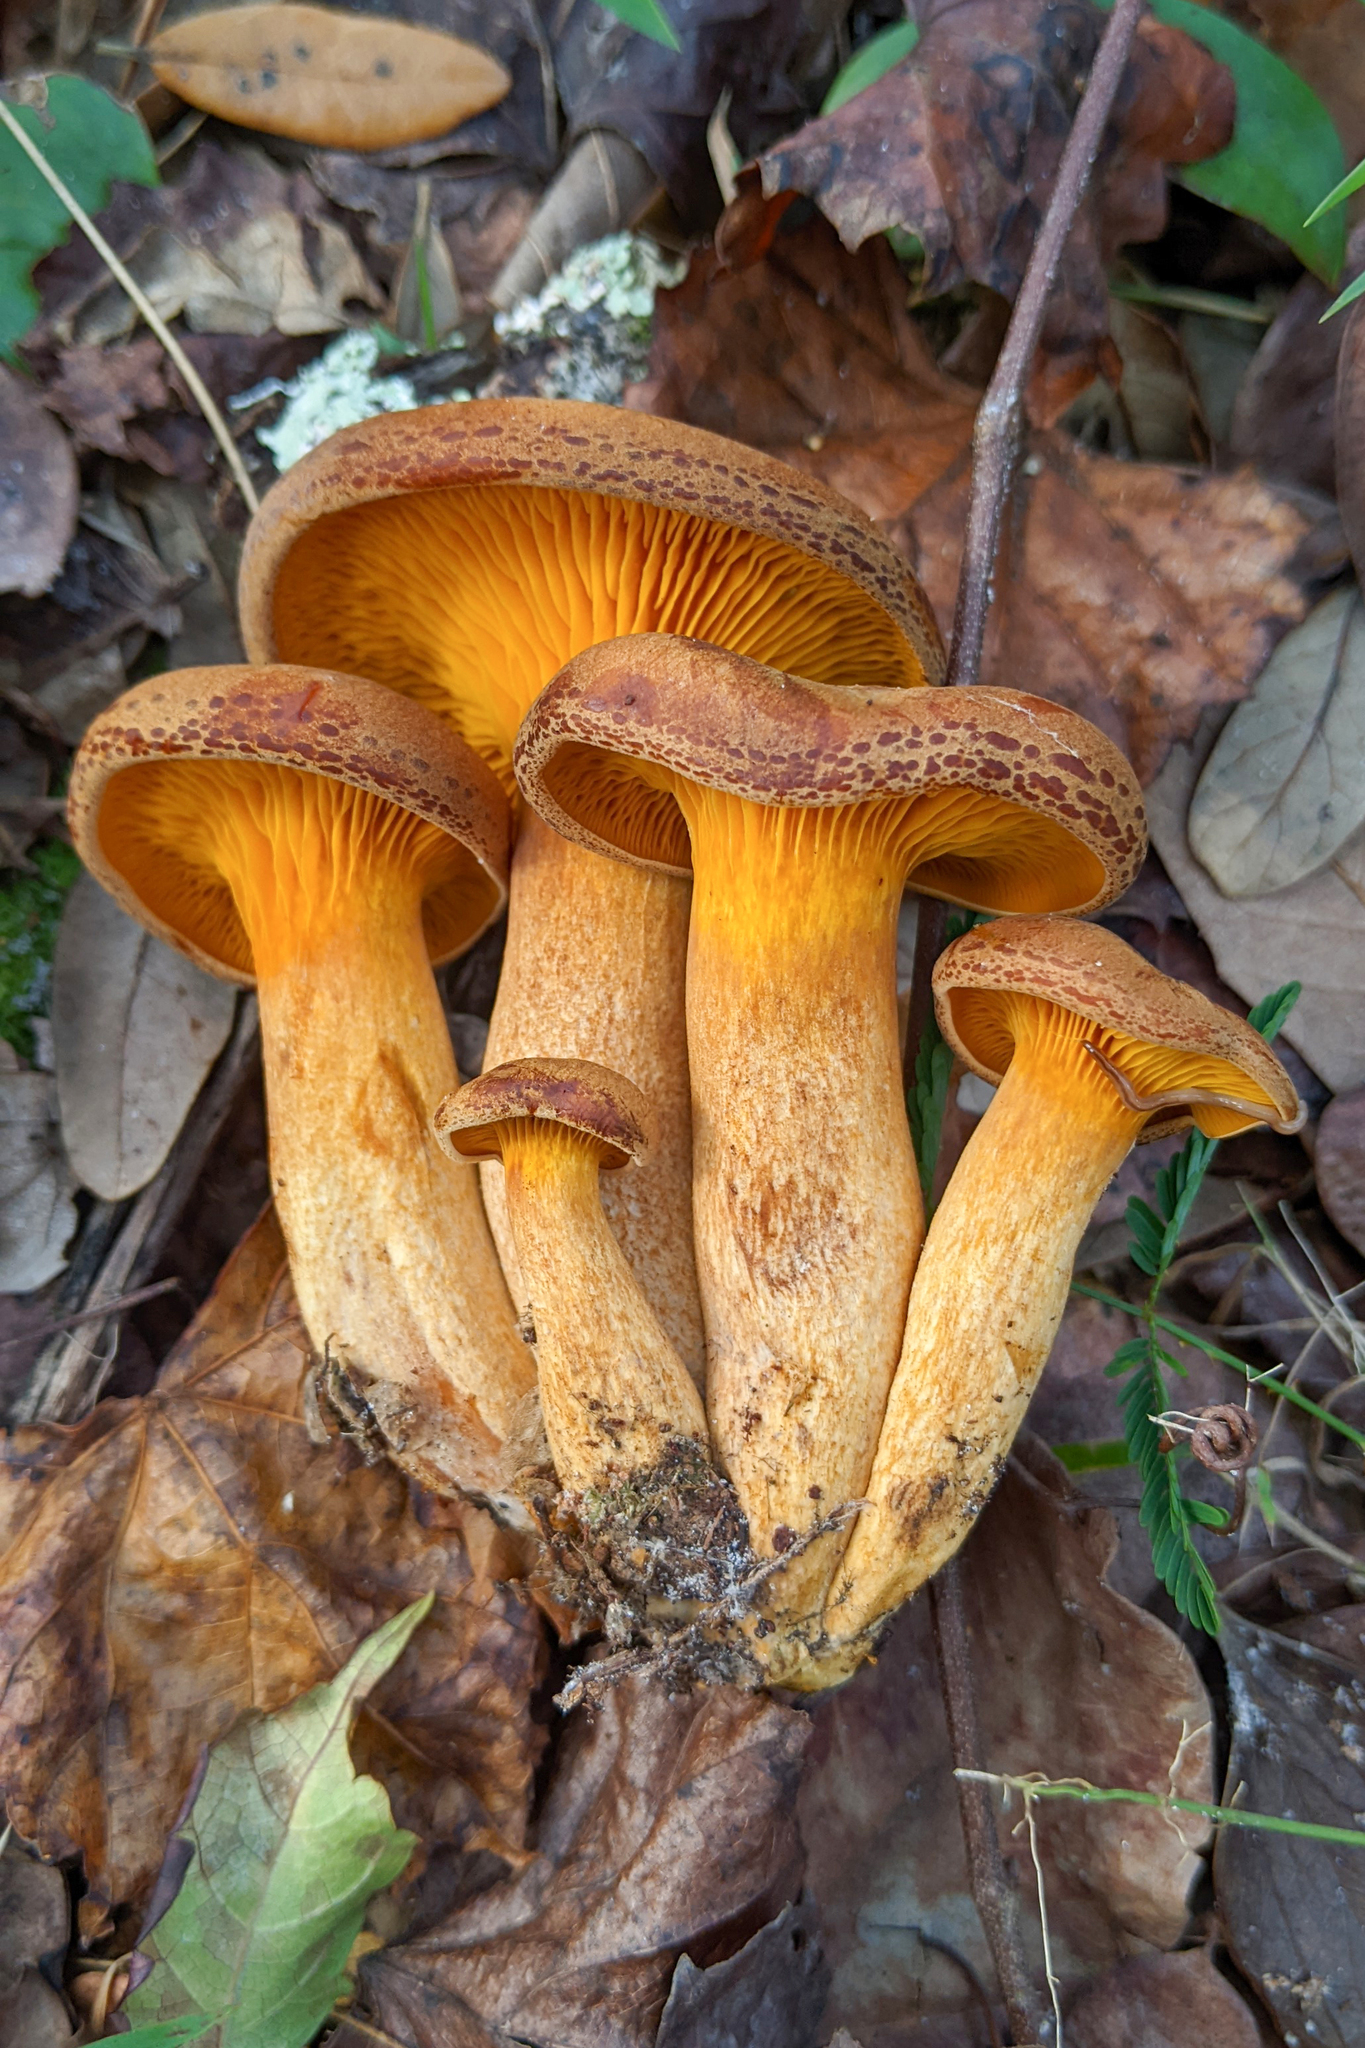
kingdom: Fungi
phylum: Basidiomycota
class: Agaricomycetes
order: Agaricales
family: Omphalotaceae
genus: Omphalotus
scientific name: Omphalotus subilludens
